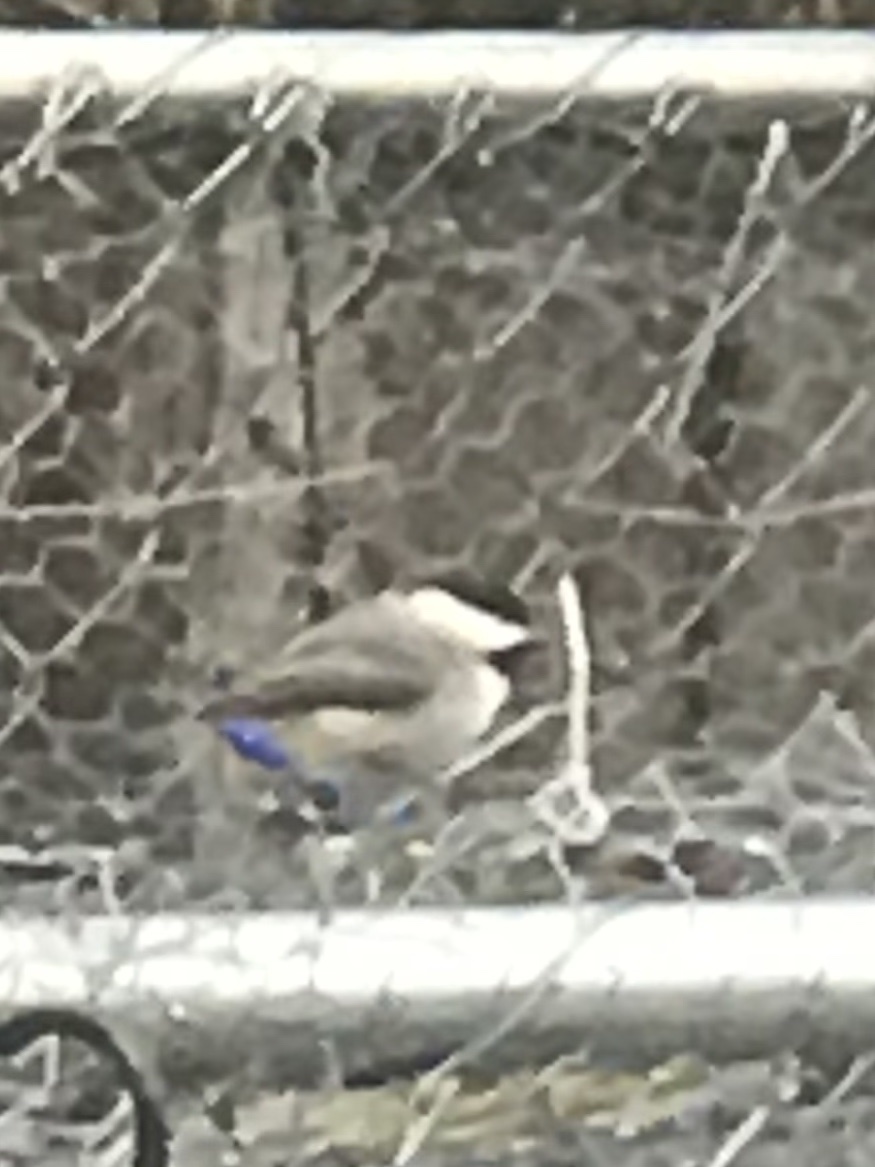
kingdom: Animalia
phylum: Chordata
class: Aves
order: Passeriformes
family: Paridae
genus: Poecile
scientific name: Poecile carolinensis
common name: Carolina chickadee
